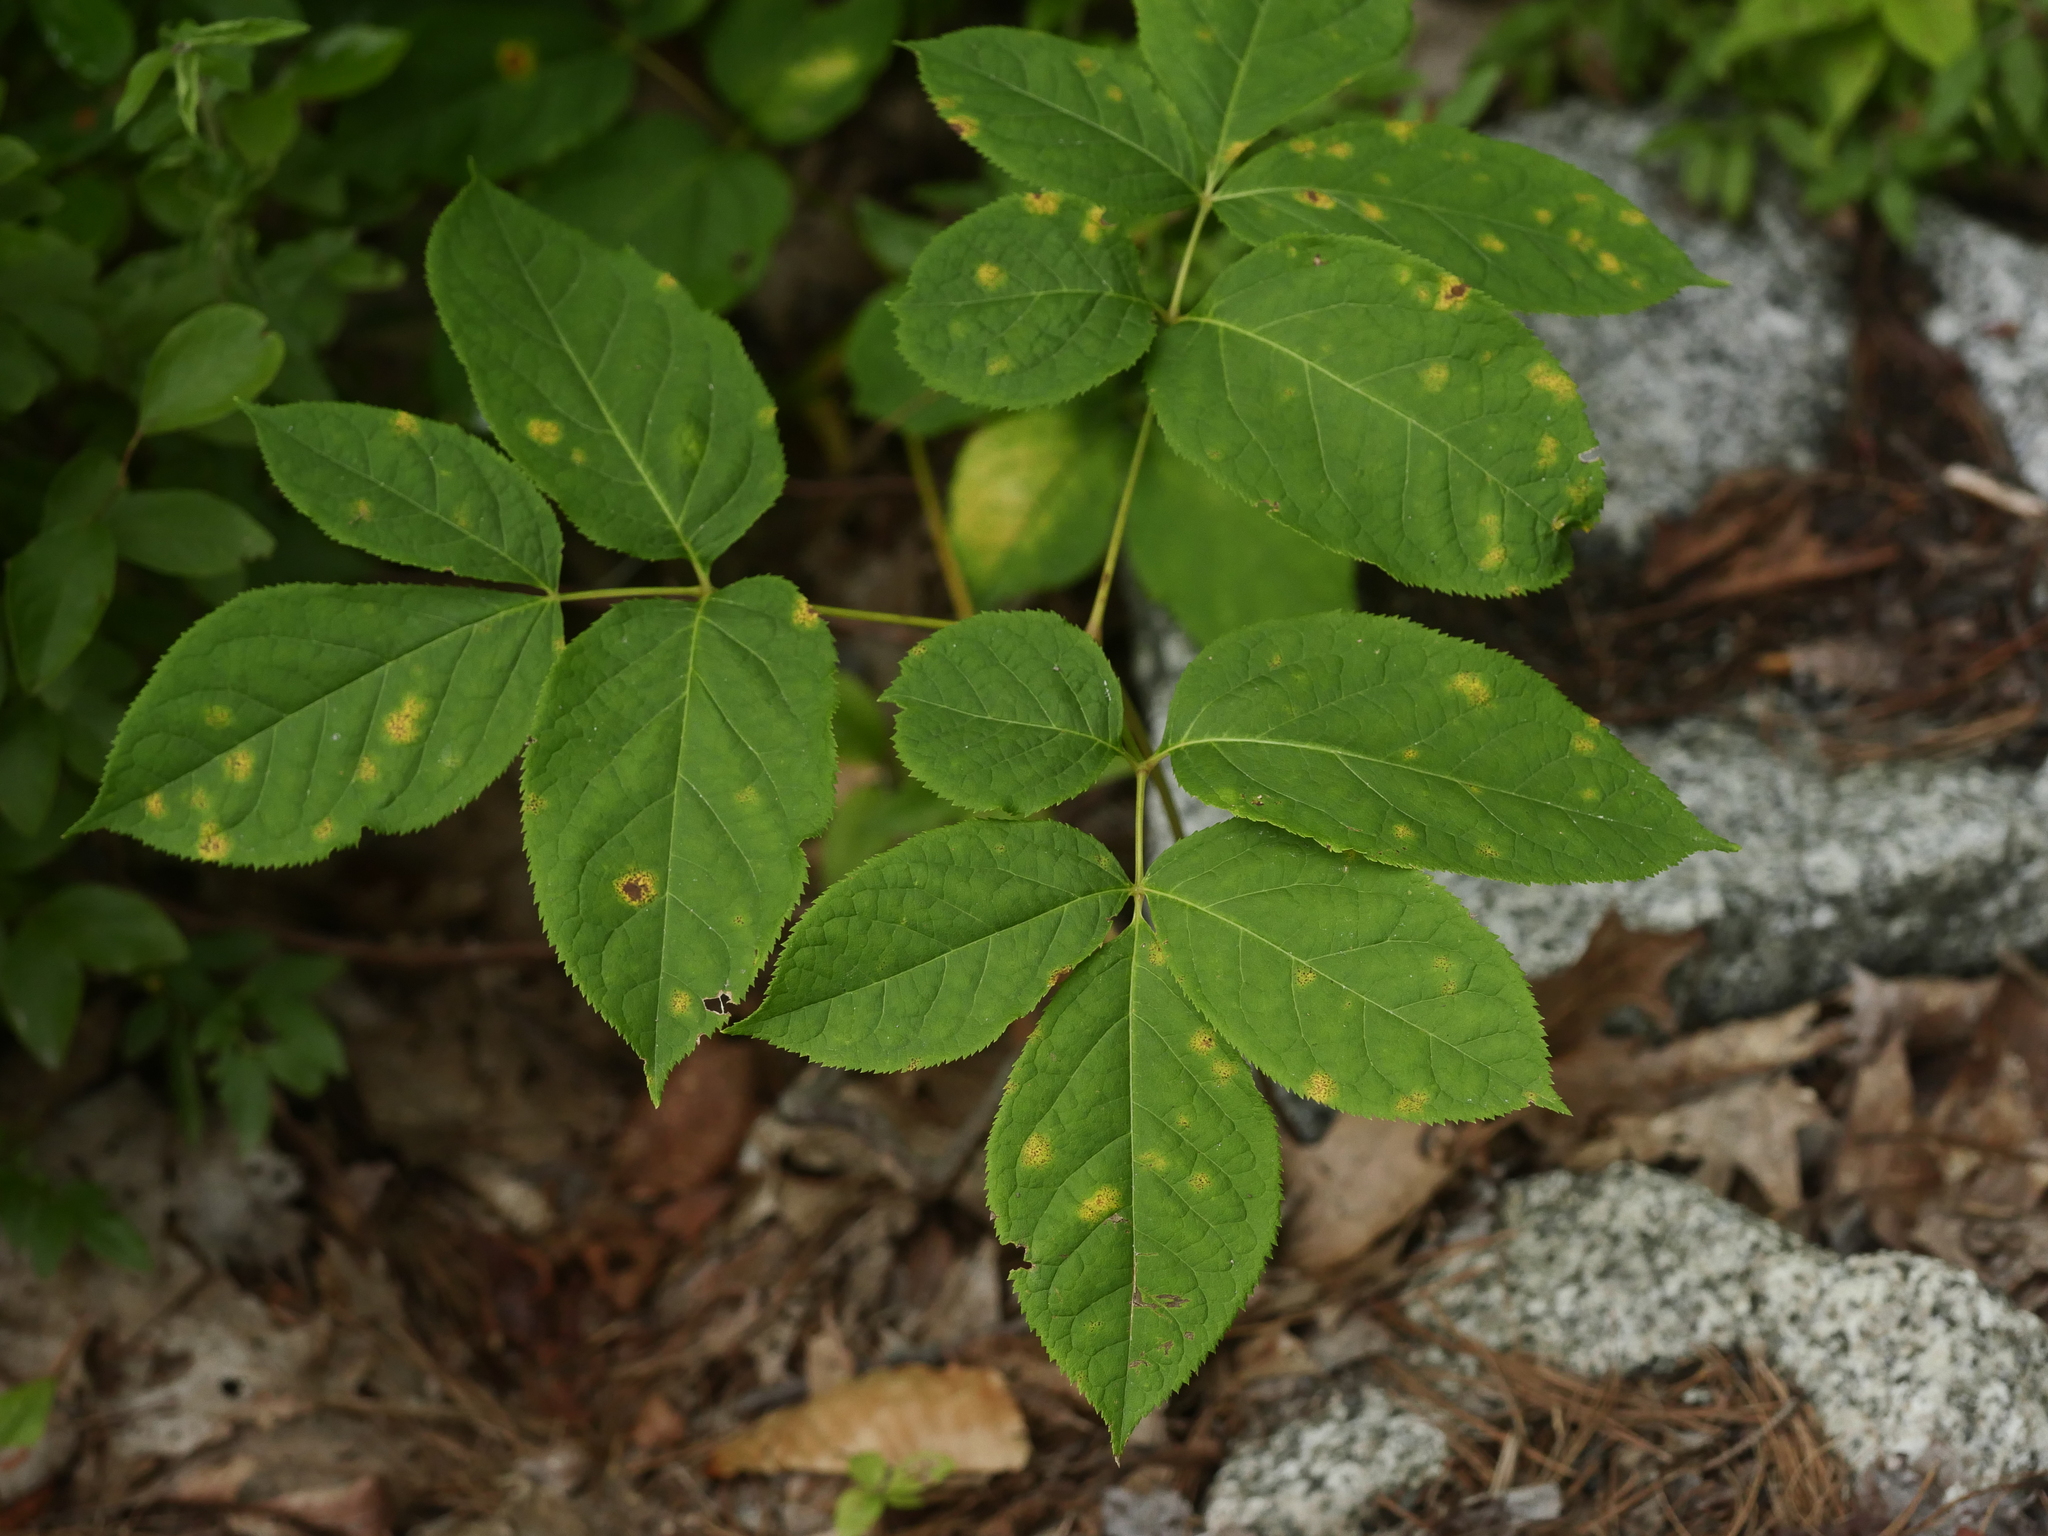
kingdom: Plantae
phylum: Tracheophyta
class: Magnoliopsida
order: Apiales
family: Araliaceae
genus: Aralia
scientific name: Aralia nudicaulis
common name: Wild sarsaparilla
